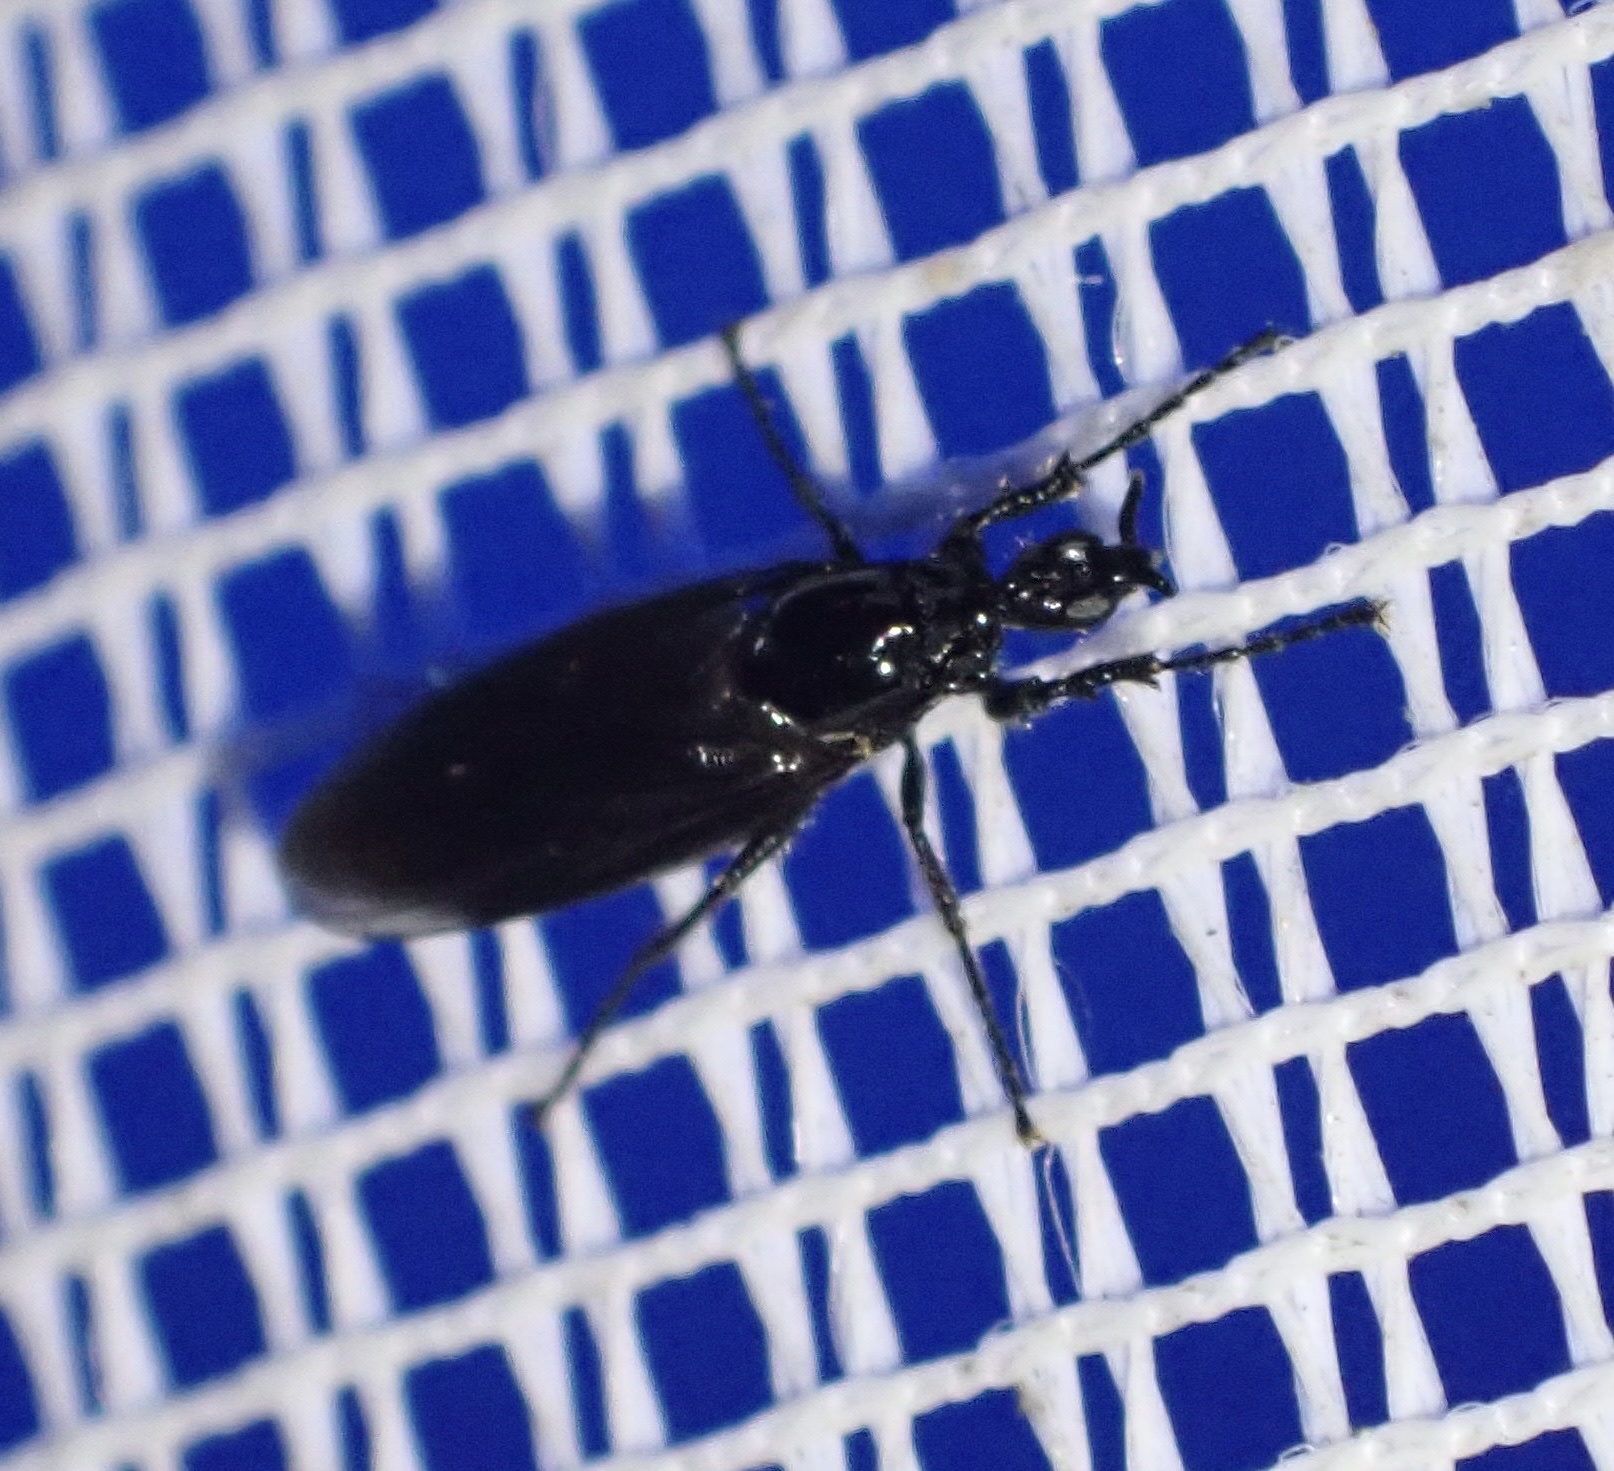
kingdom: Animalia
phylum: Arthropoda
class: Insecta
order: Diptera
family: Bibionidae
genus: Dilophus
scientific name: Dilophus febrilis
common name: Fever fly
